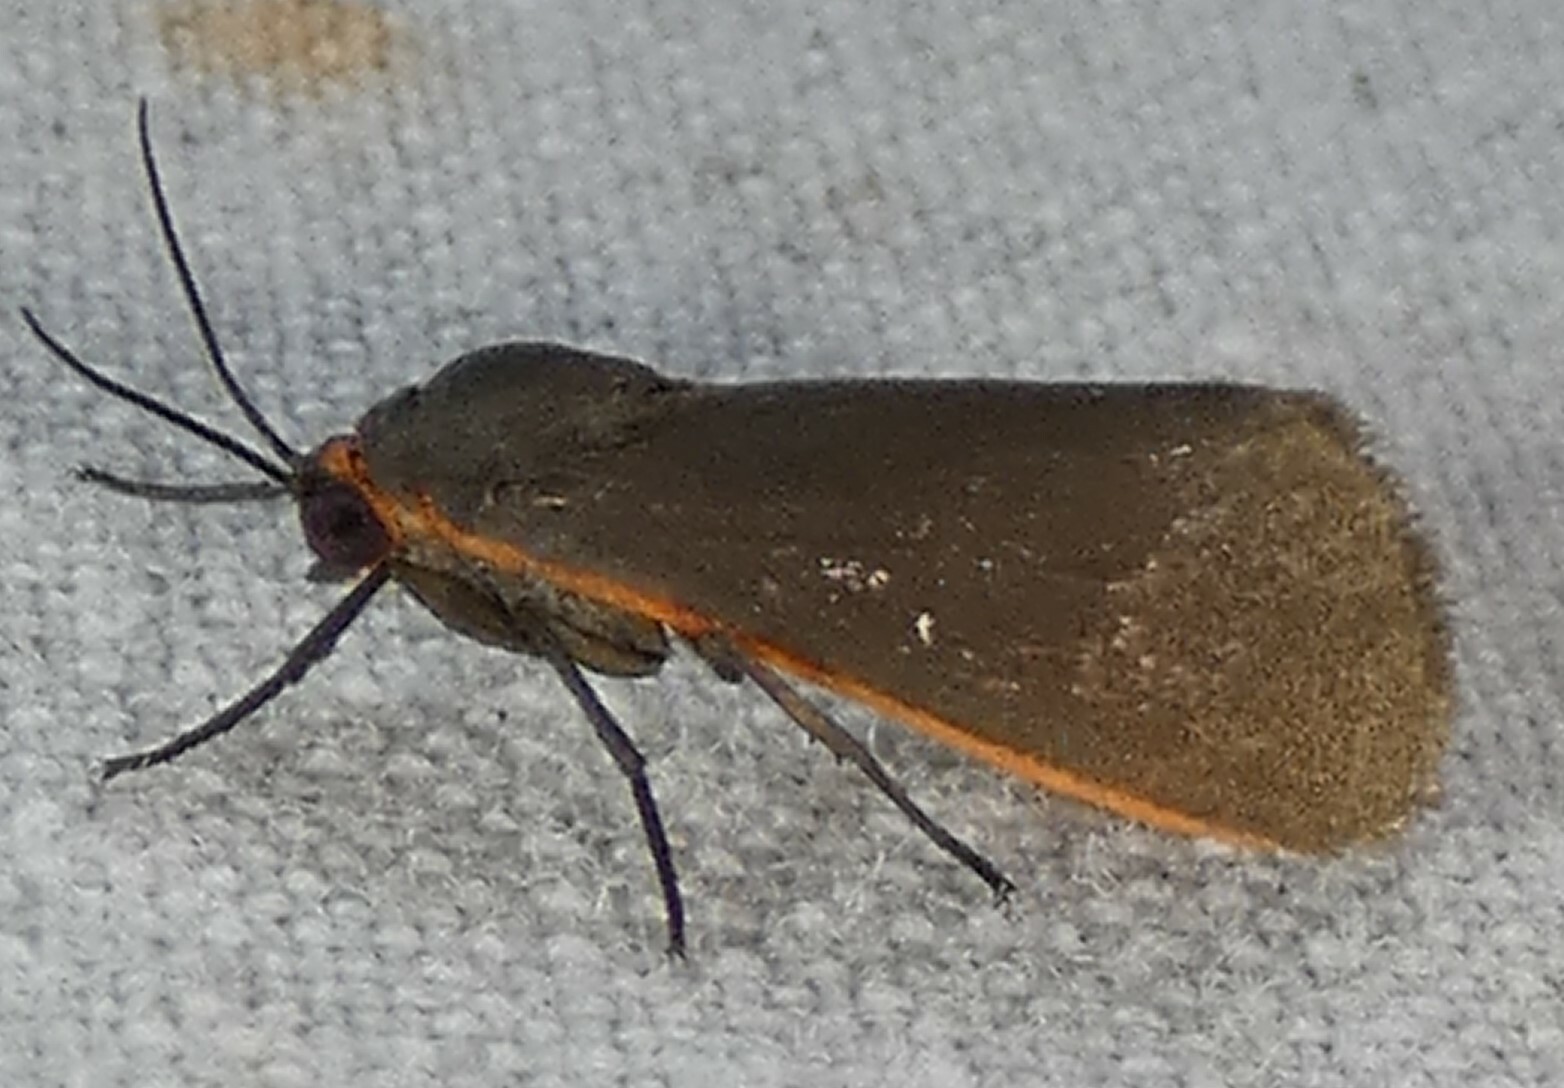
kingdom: Animalia
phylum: Arthropoda
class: Insecta
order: Lepidoptera
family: Erebidae
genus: Virbia
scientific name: Virbia laeta
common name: Joyful holomelina moth
